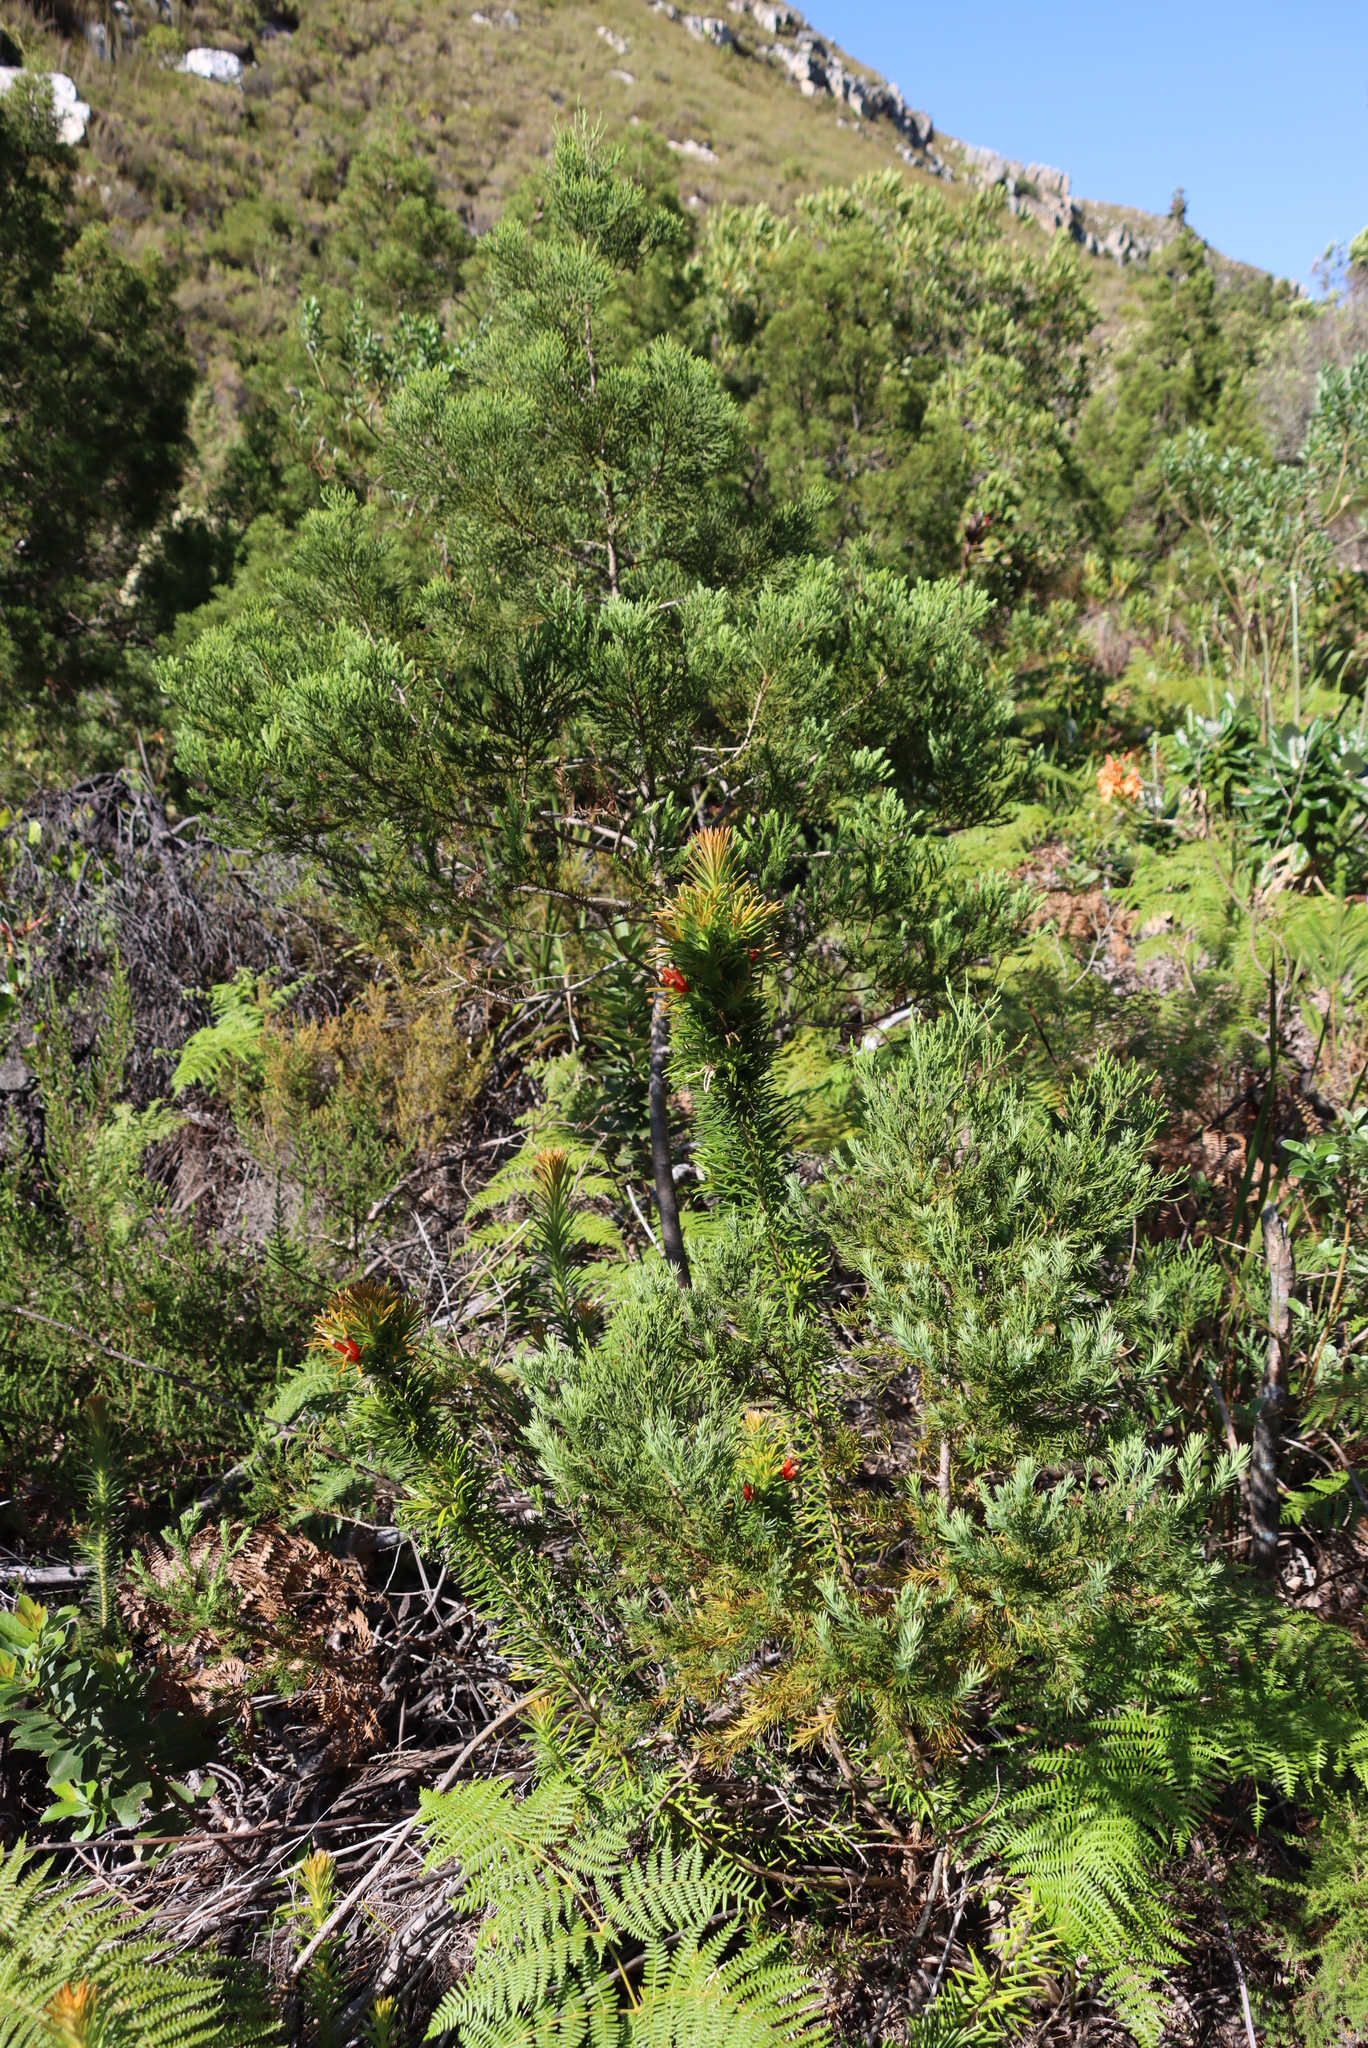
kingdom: Plantae
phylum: Tracheophyta
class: Pinopsida
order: Pinales
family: Cupressaceae
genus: Widdringtonia
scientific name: Widdringtonia nodiflora
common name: Cape cypress
